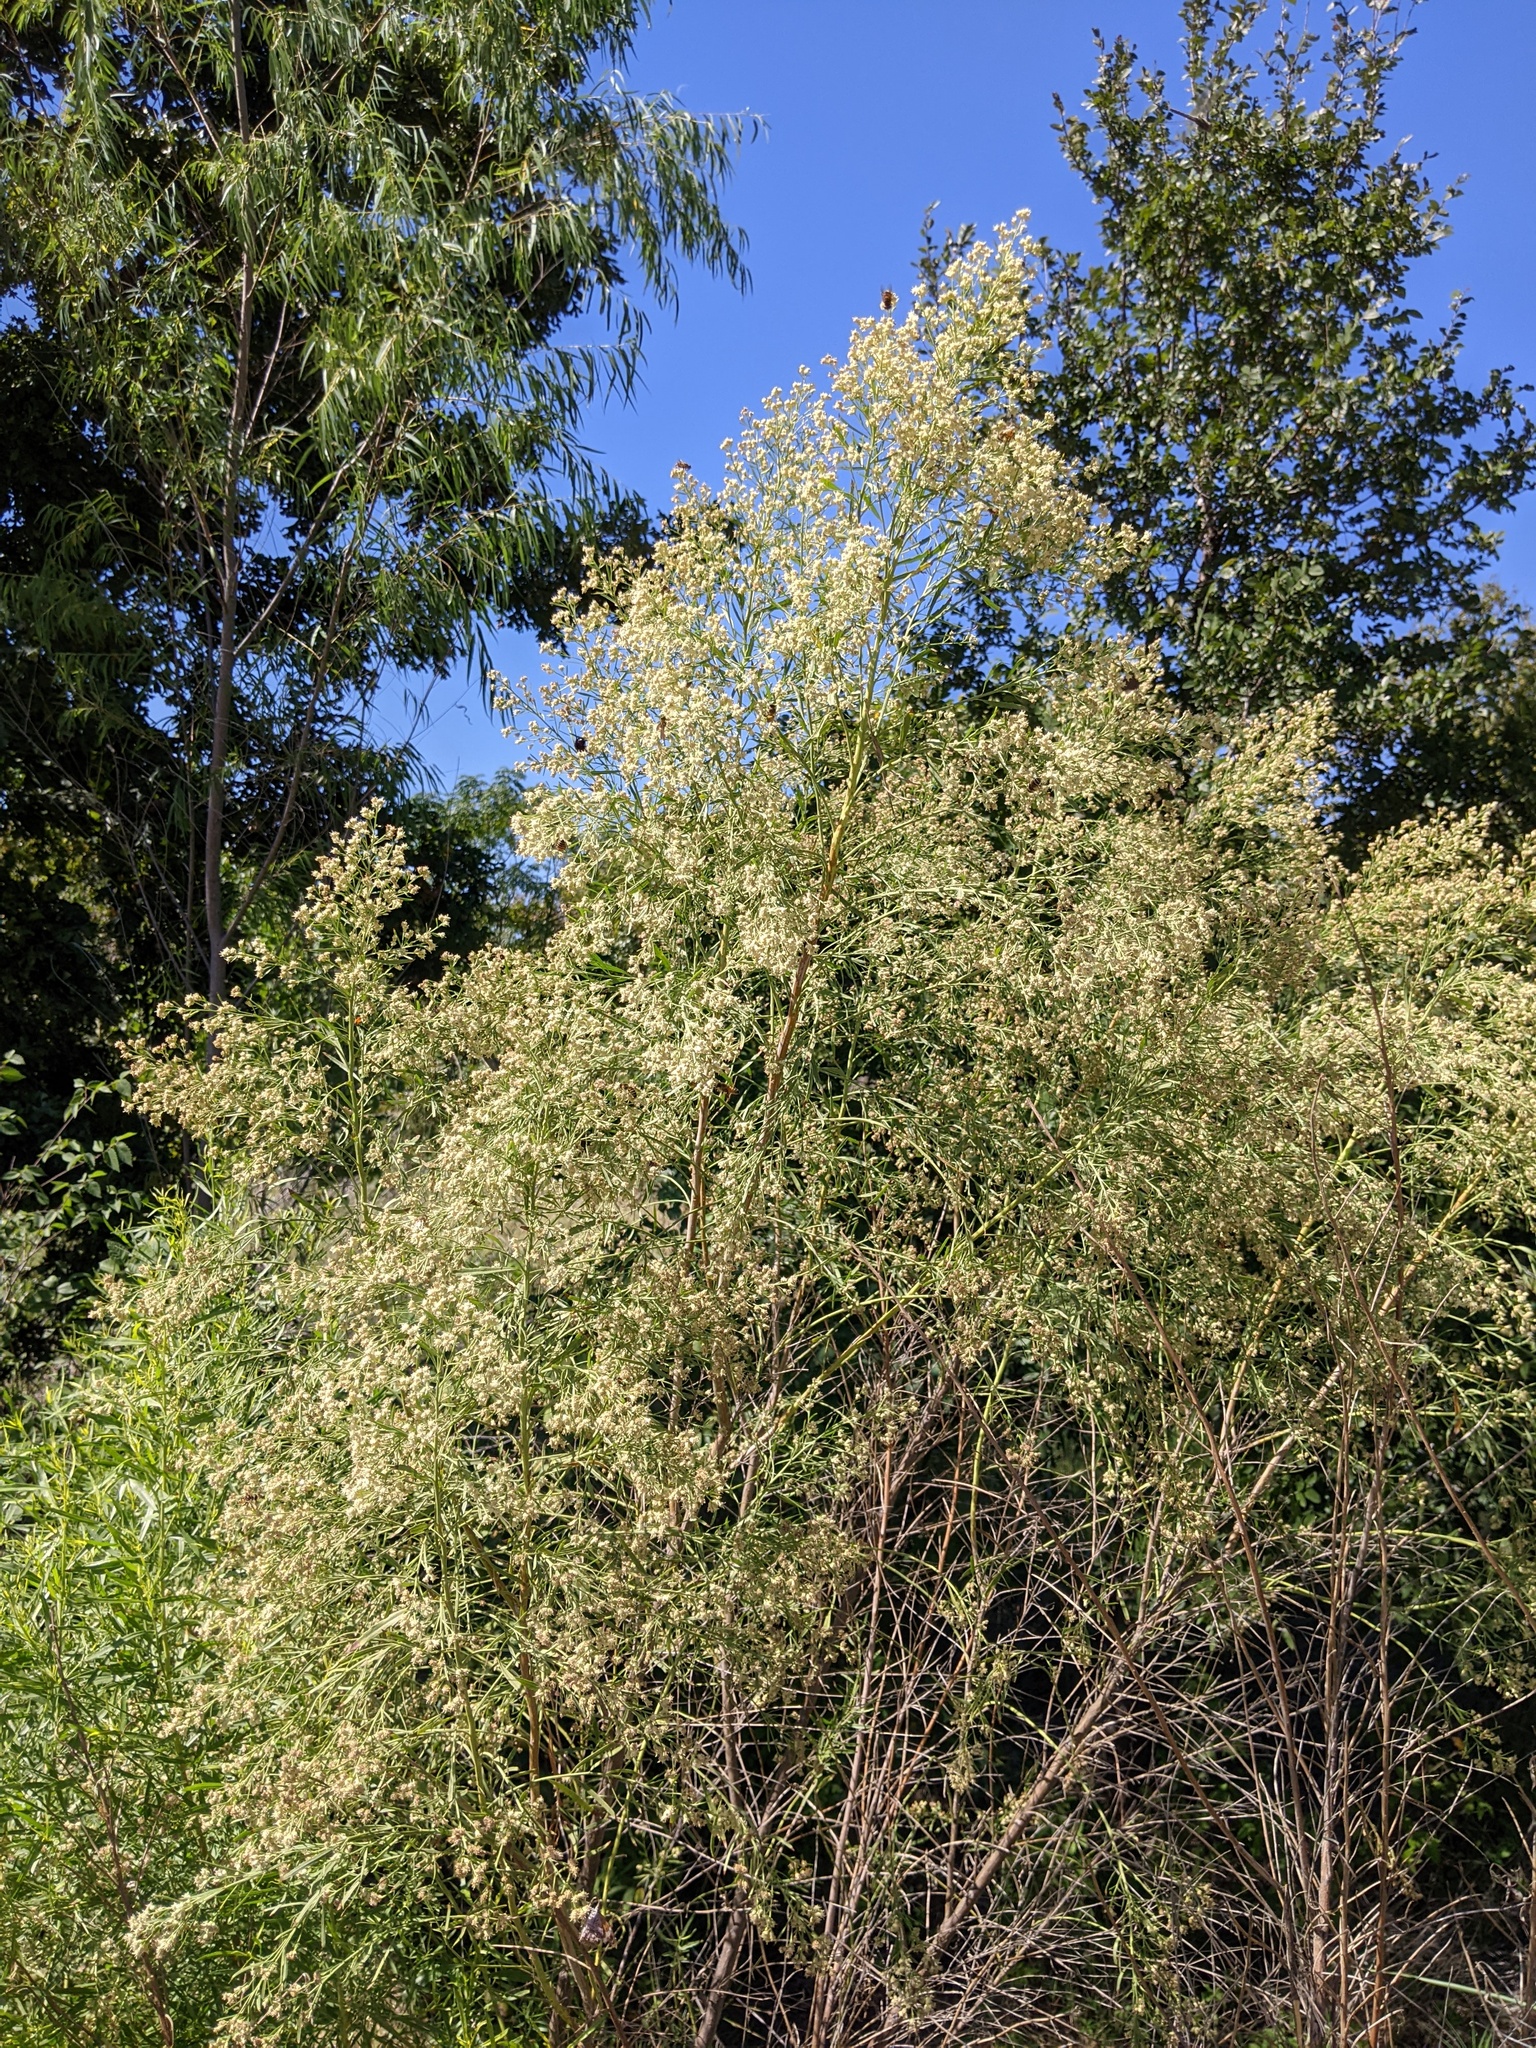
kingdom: Plantae
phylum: Tracheophyta
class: Magnoliopsida
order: Asterales
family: Asteraceae
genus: Baccharis
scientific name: Baccharis neglecta
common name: Roosevelt-weed
